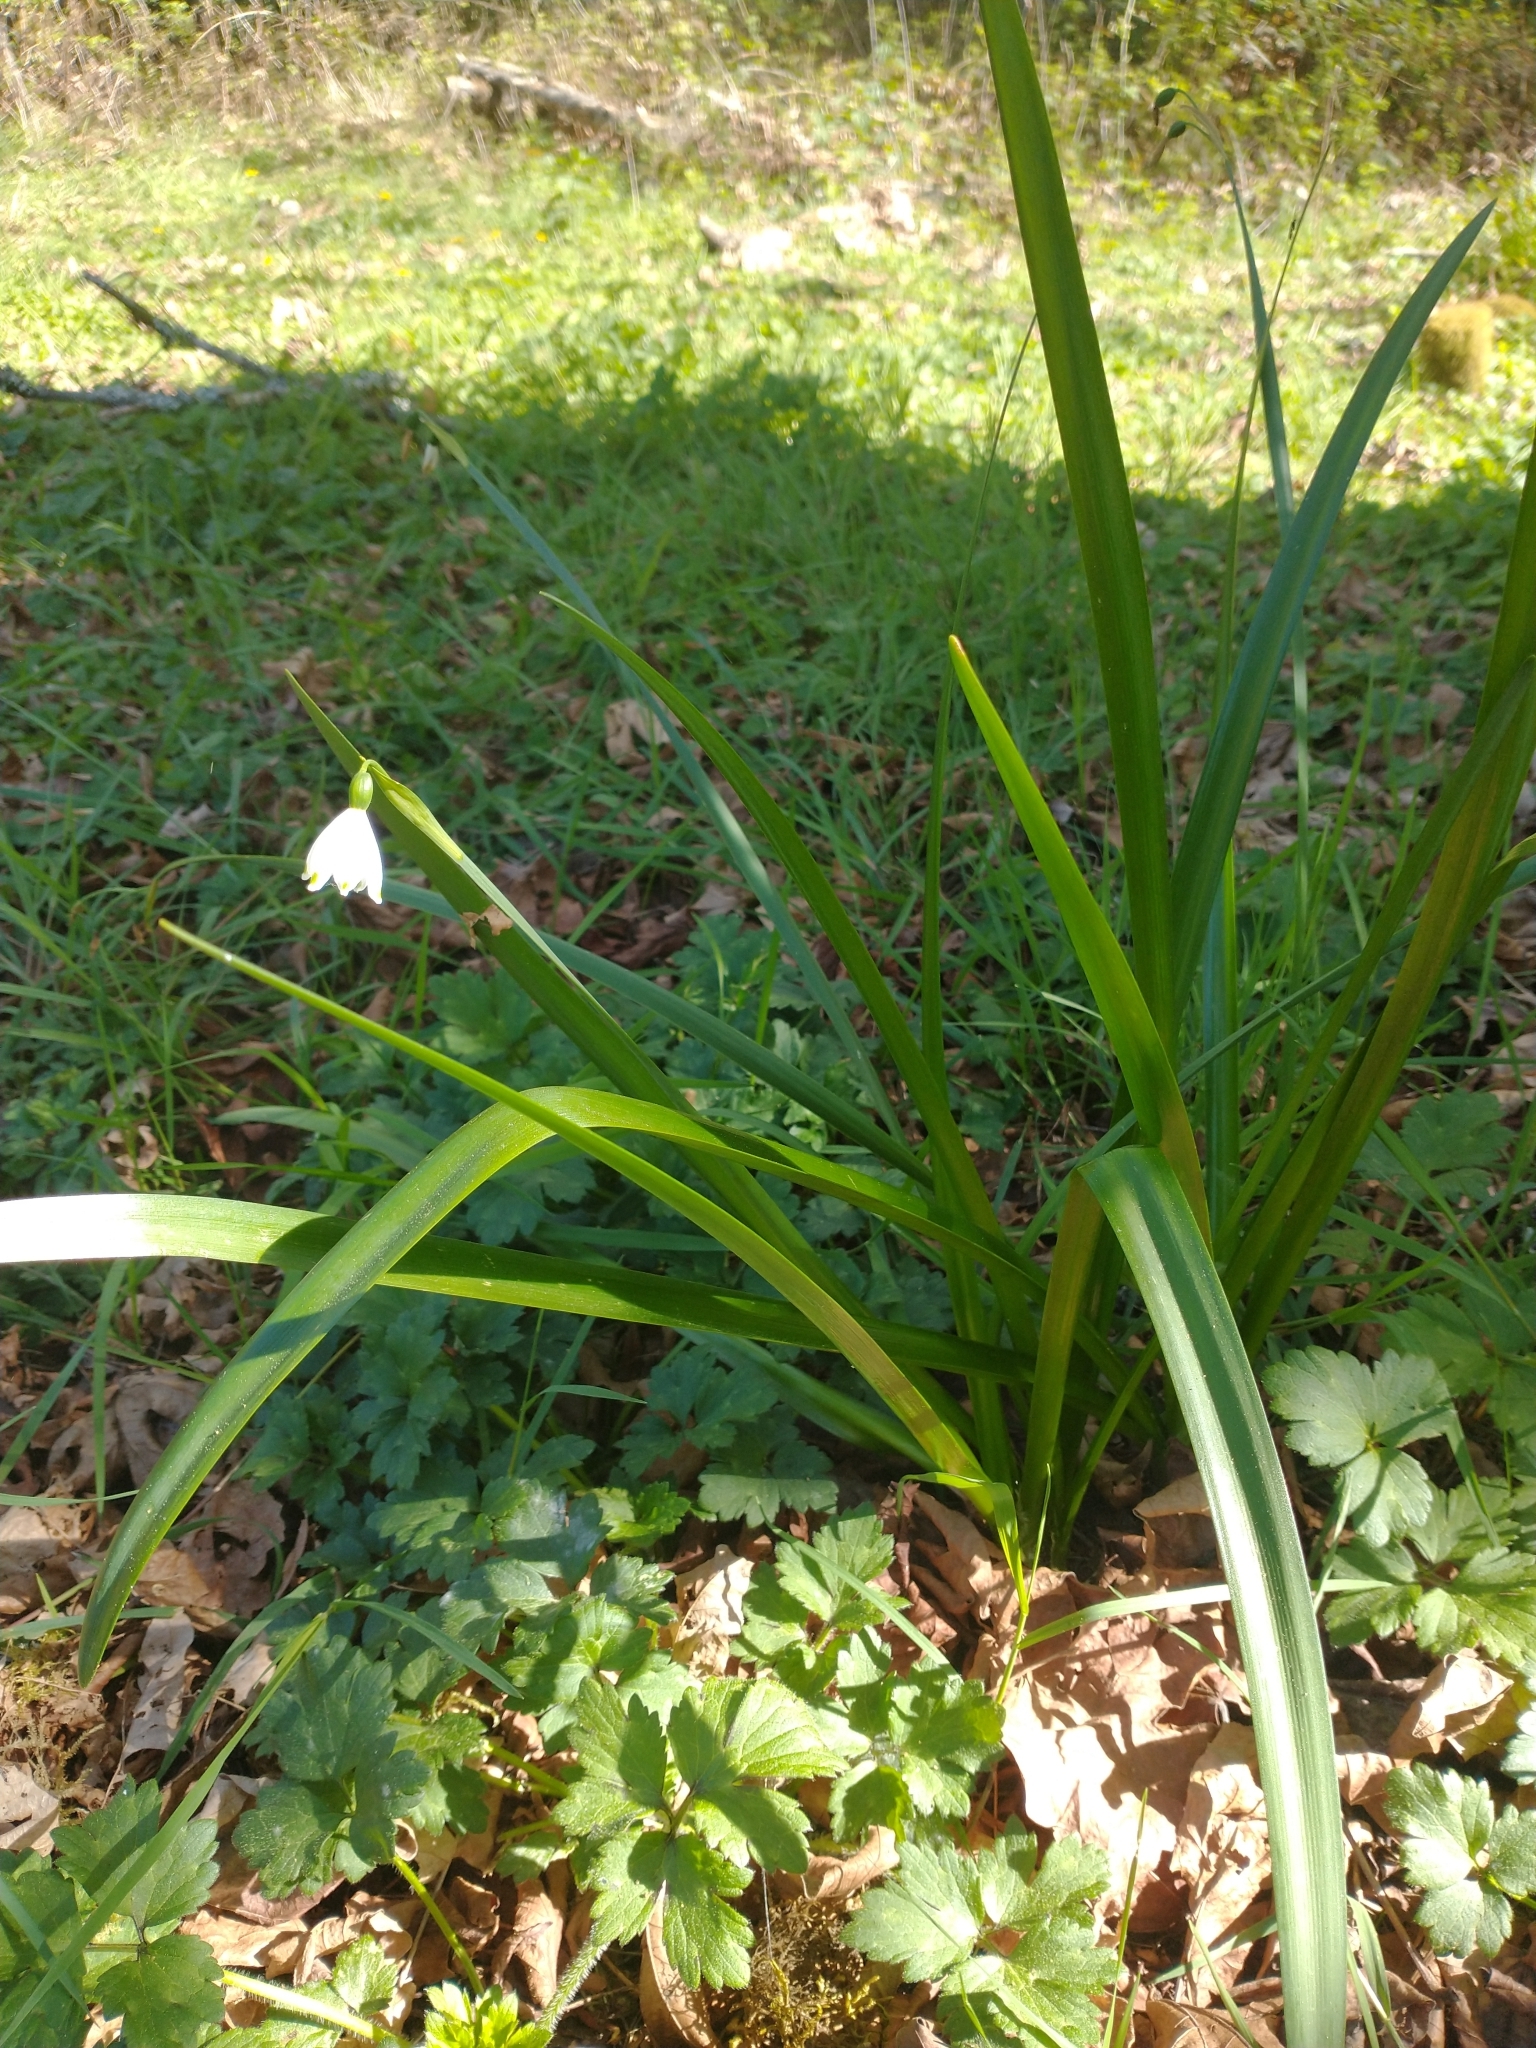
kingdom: Plantae
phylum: Tracheophyta
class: Liliopsida
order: Asparagales
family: Amaryllidaceae
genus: Leucojum
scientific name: Leucojum aestivum
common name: Summer snowflake
